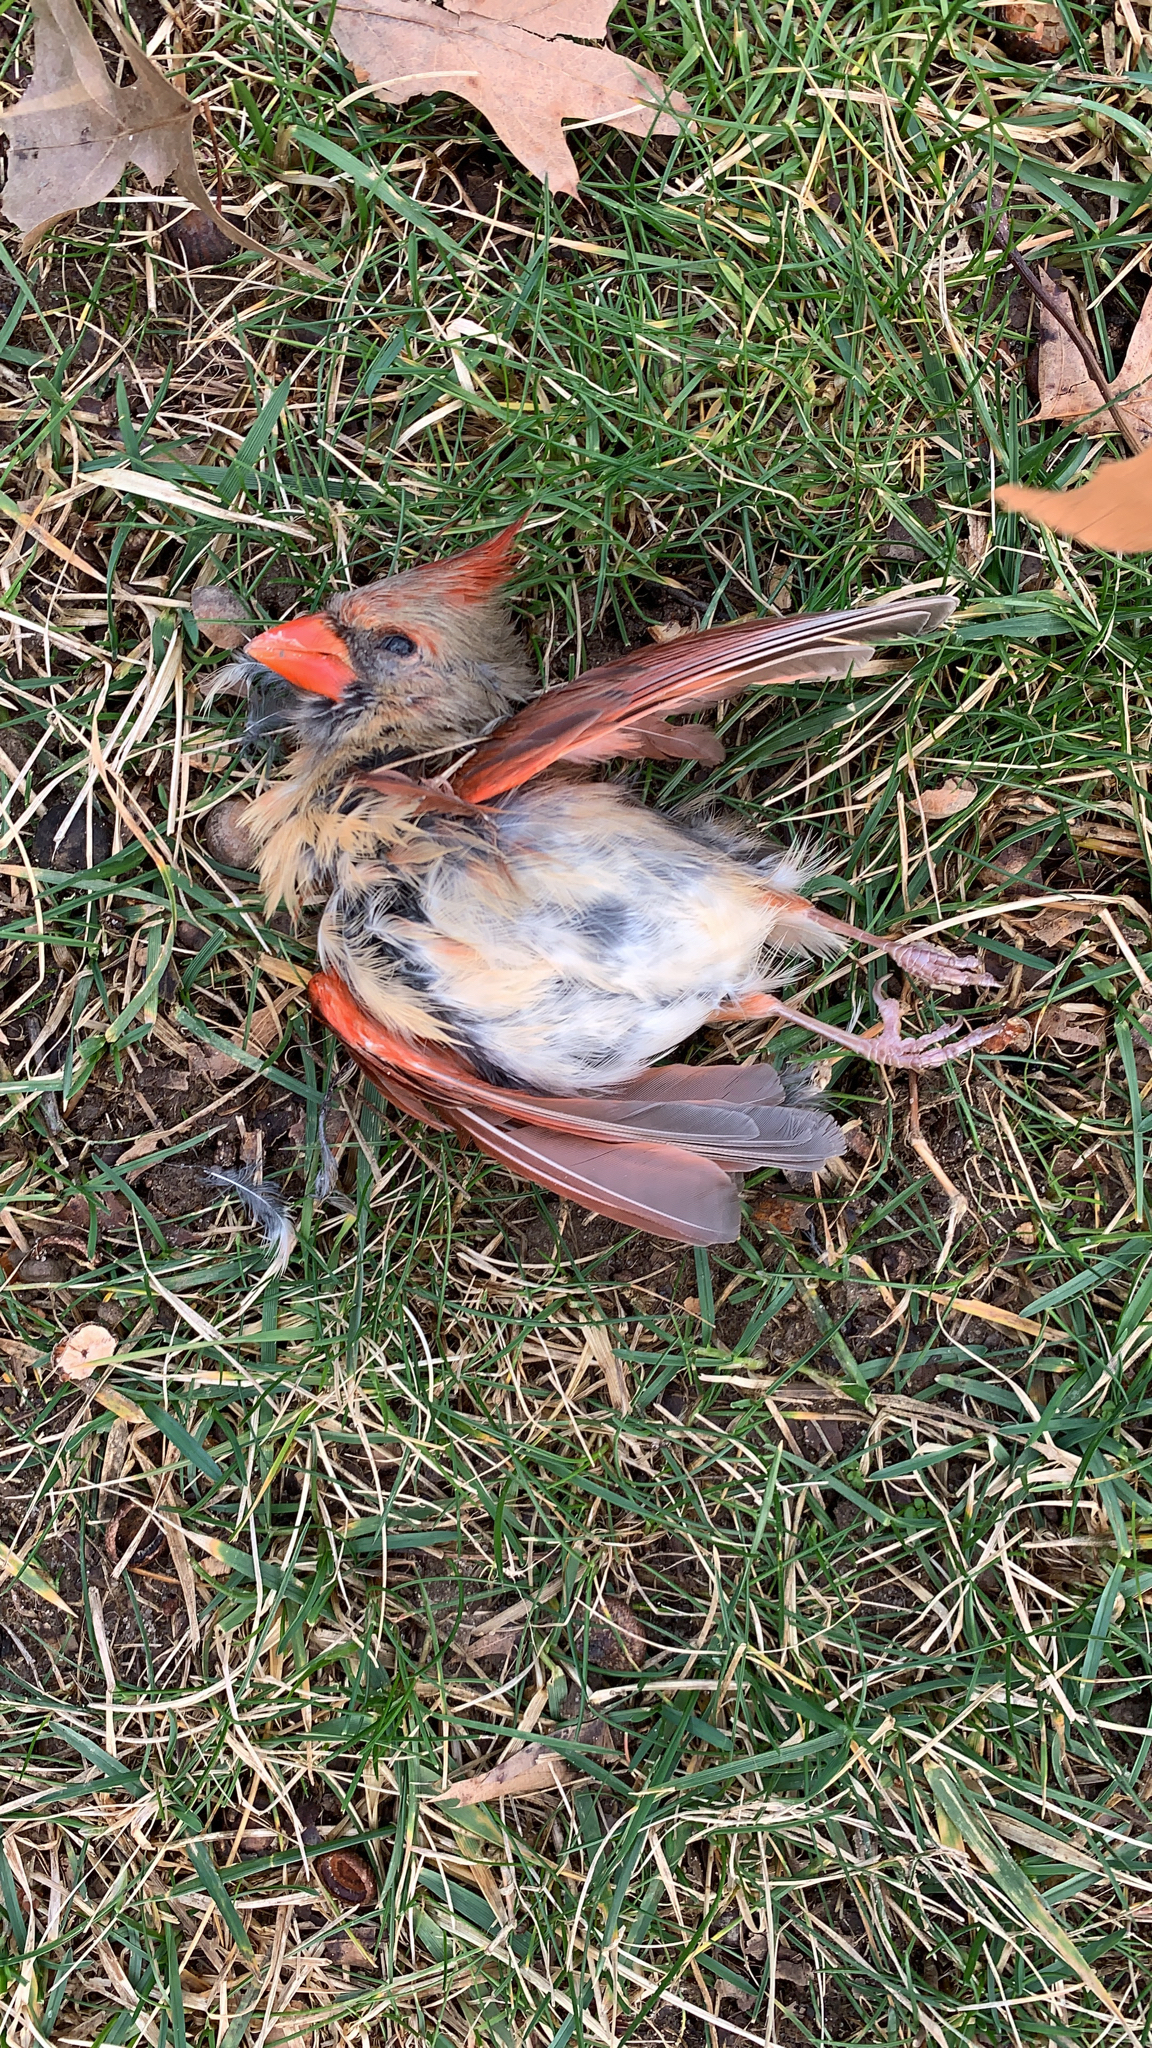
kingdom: Animalia
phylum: Chordata
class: Aves
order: Passeriformes
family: Cardinalidae
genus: Cardinalis
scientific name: Cardinalis cardinalis
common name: Northern cardinal
